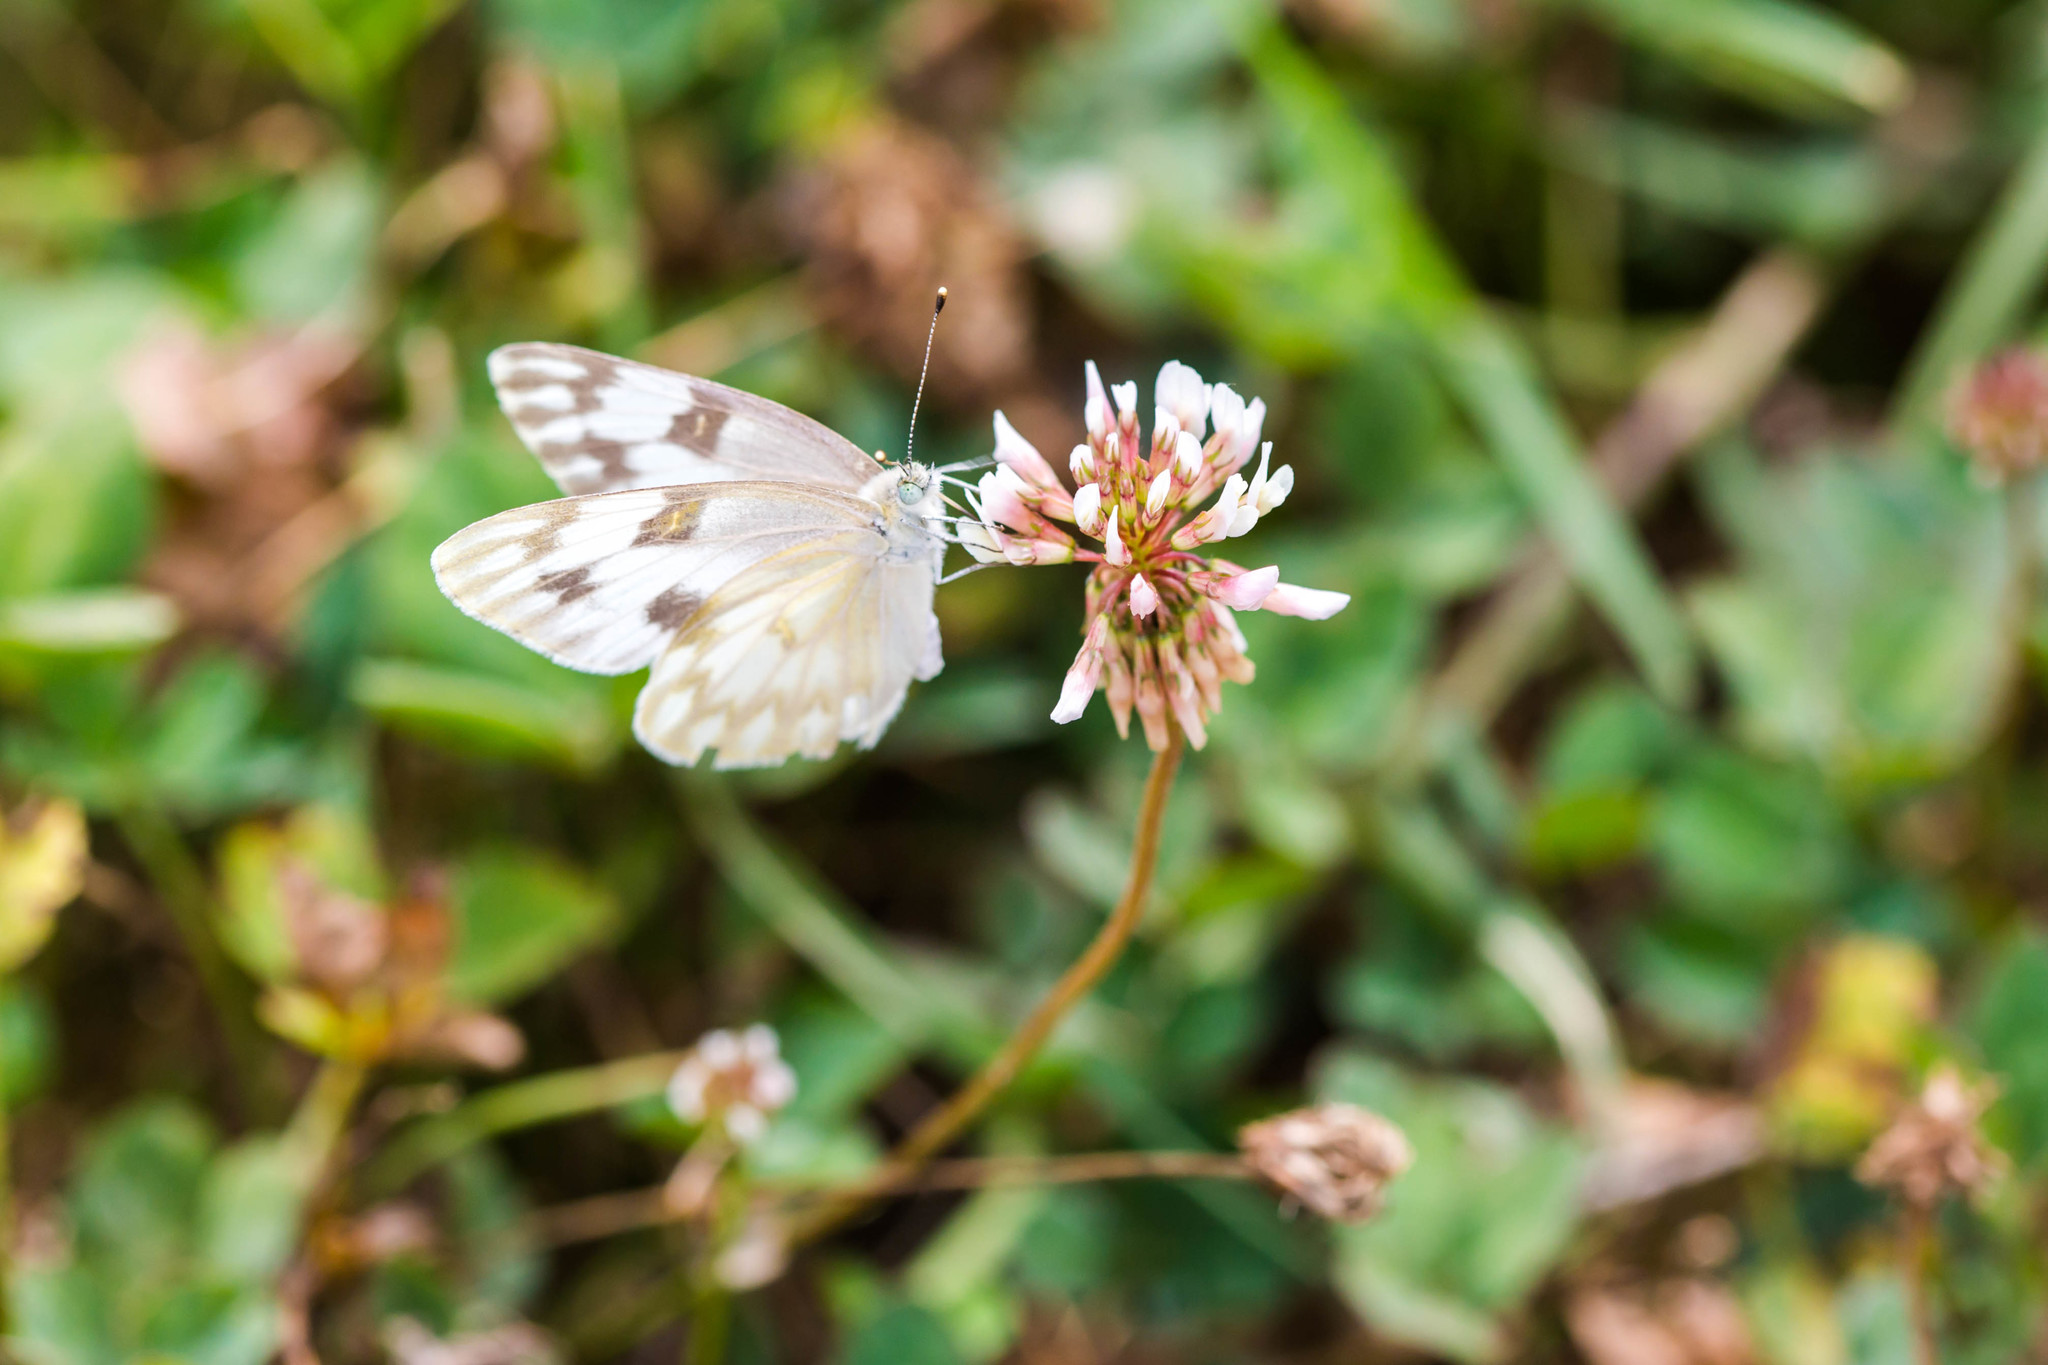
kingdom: Animalia
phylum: Arthropoda
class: Insecta
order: Lepidoptera
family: Pieridae
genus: Pontia
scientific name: Pontia protodice
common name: Checkered white
